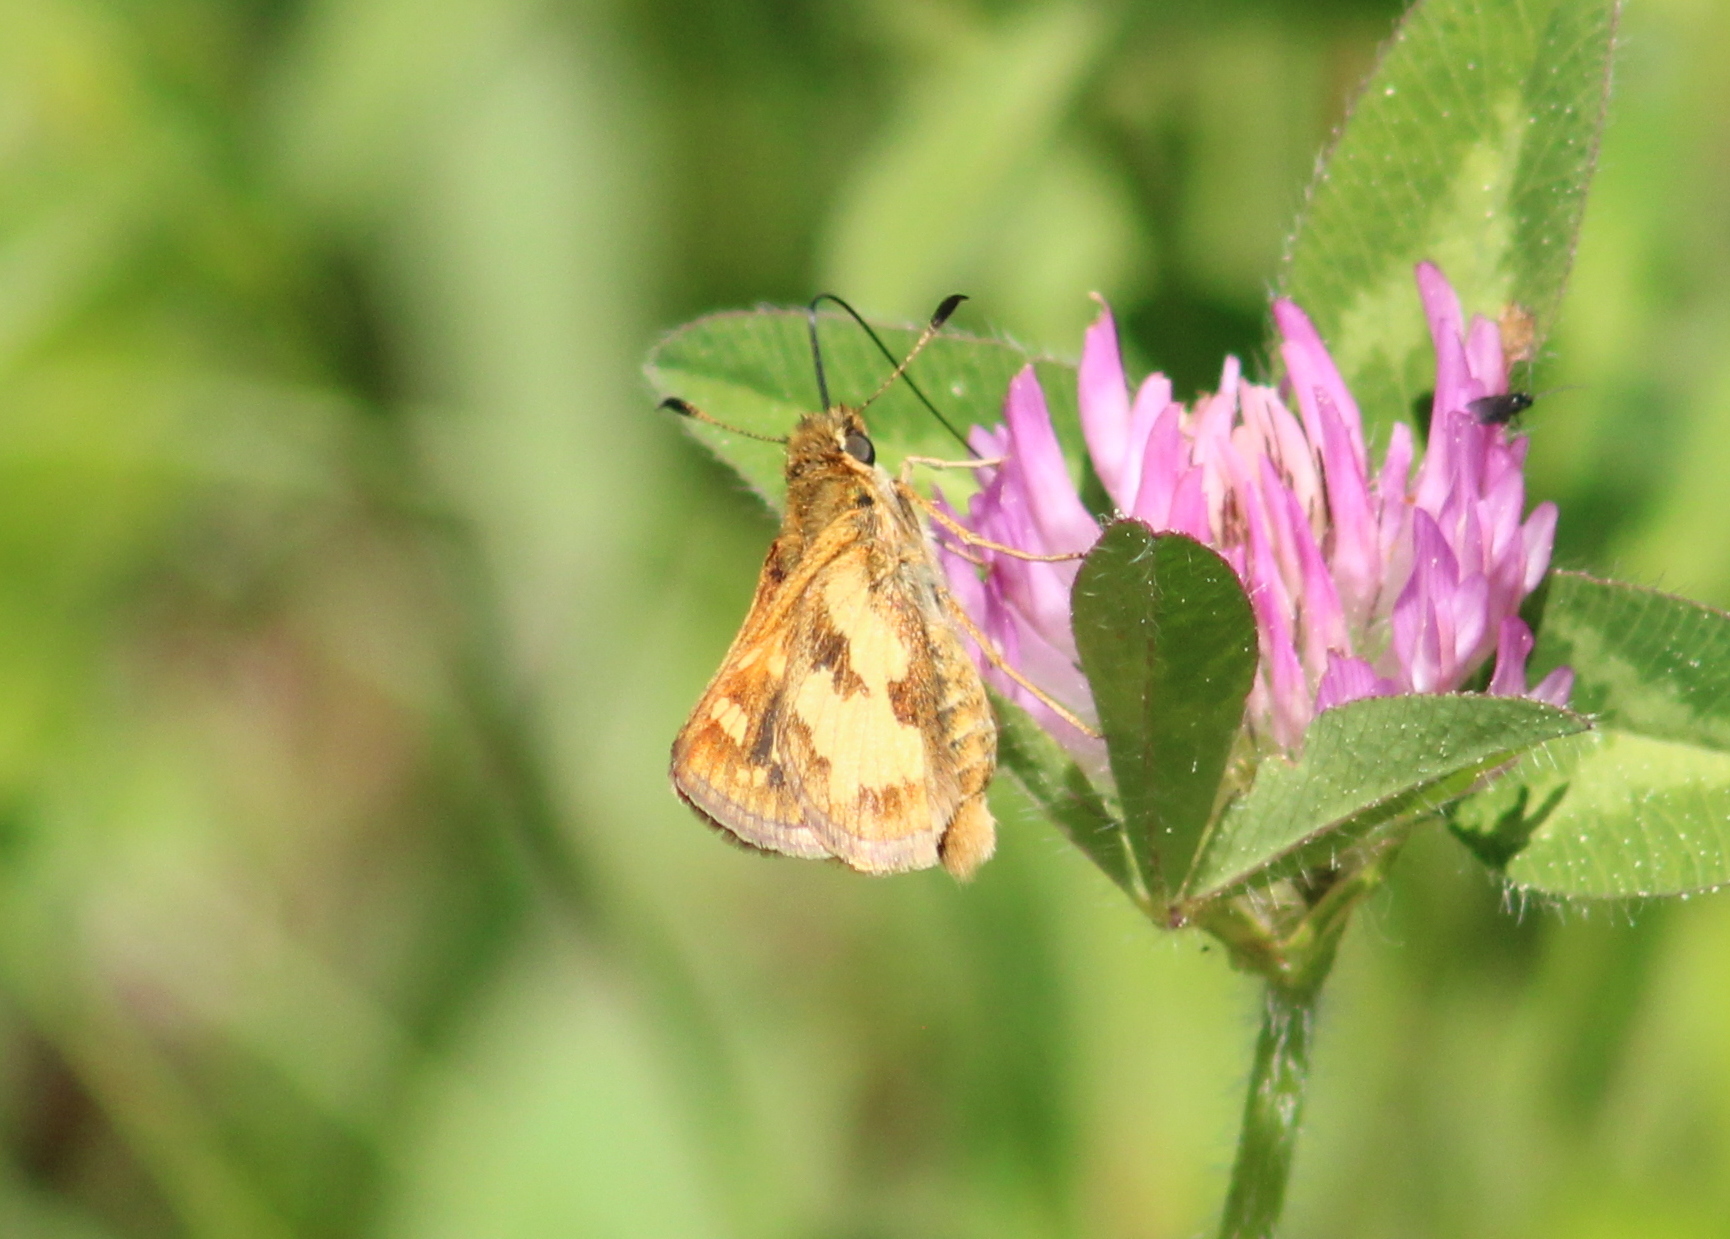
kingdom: Animalia
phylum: Arthropoda
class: Insecta
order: Lepidoptera
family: Hesperiidae
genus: Polites
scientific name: Polites coras
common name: Peck's skipper
